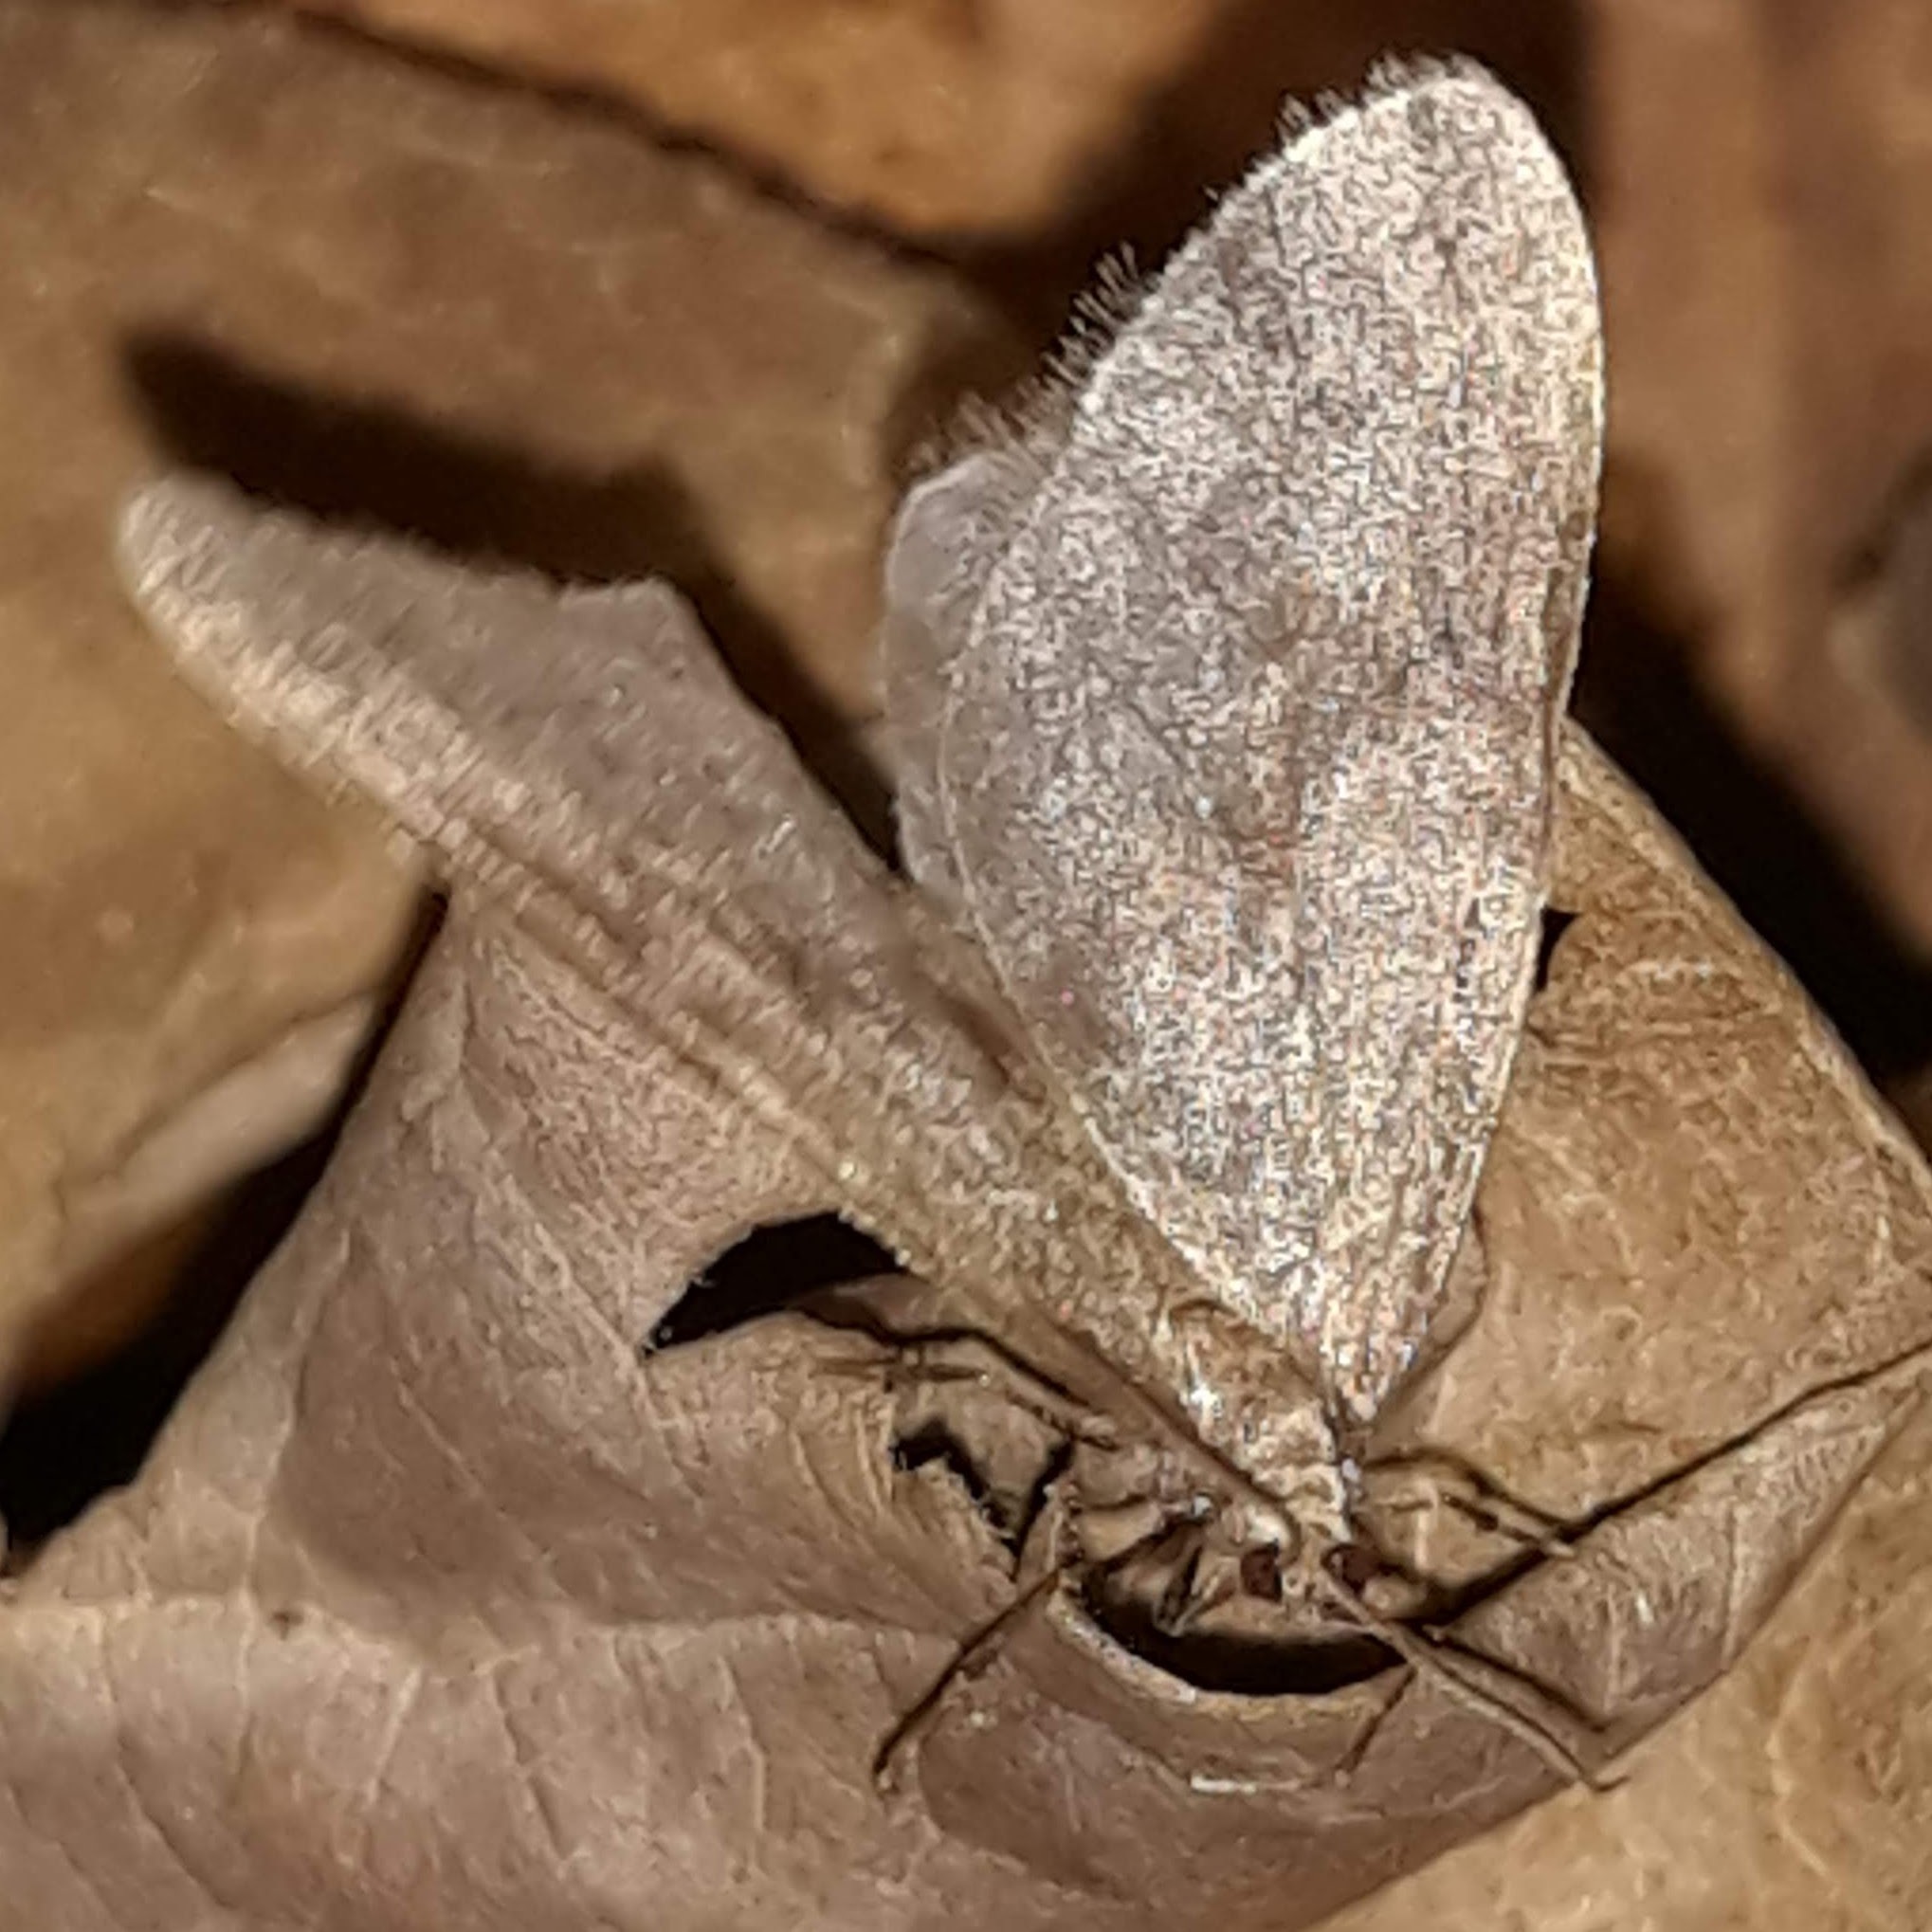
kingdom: Animalia
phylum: Arthropoda
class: Insecta
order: Lepidoptera
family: Geometridae
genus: Operophtera
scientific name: Operophtera bruceata
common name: Bruce spanworm
